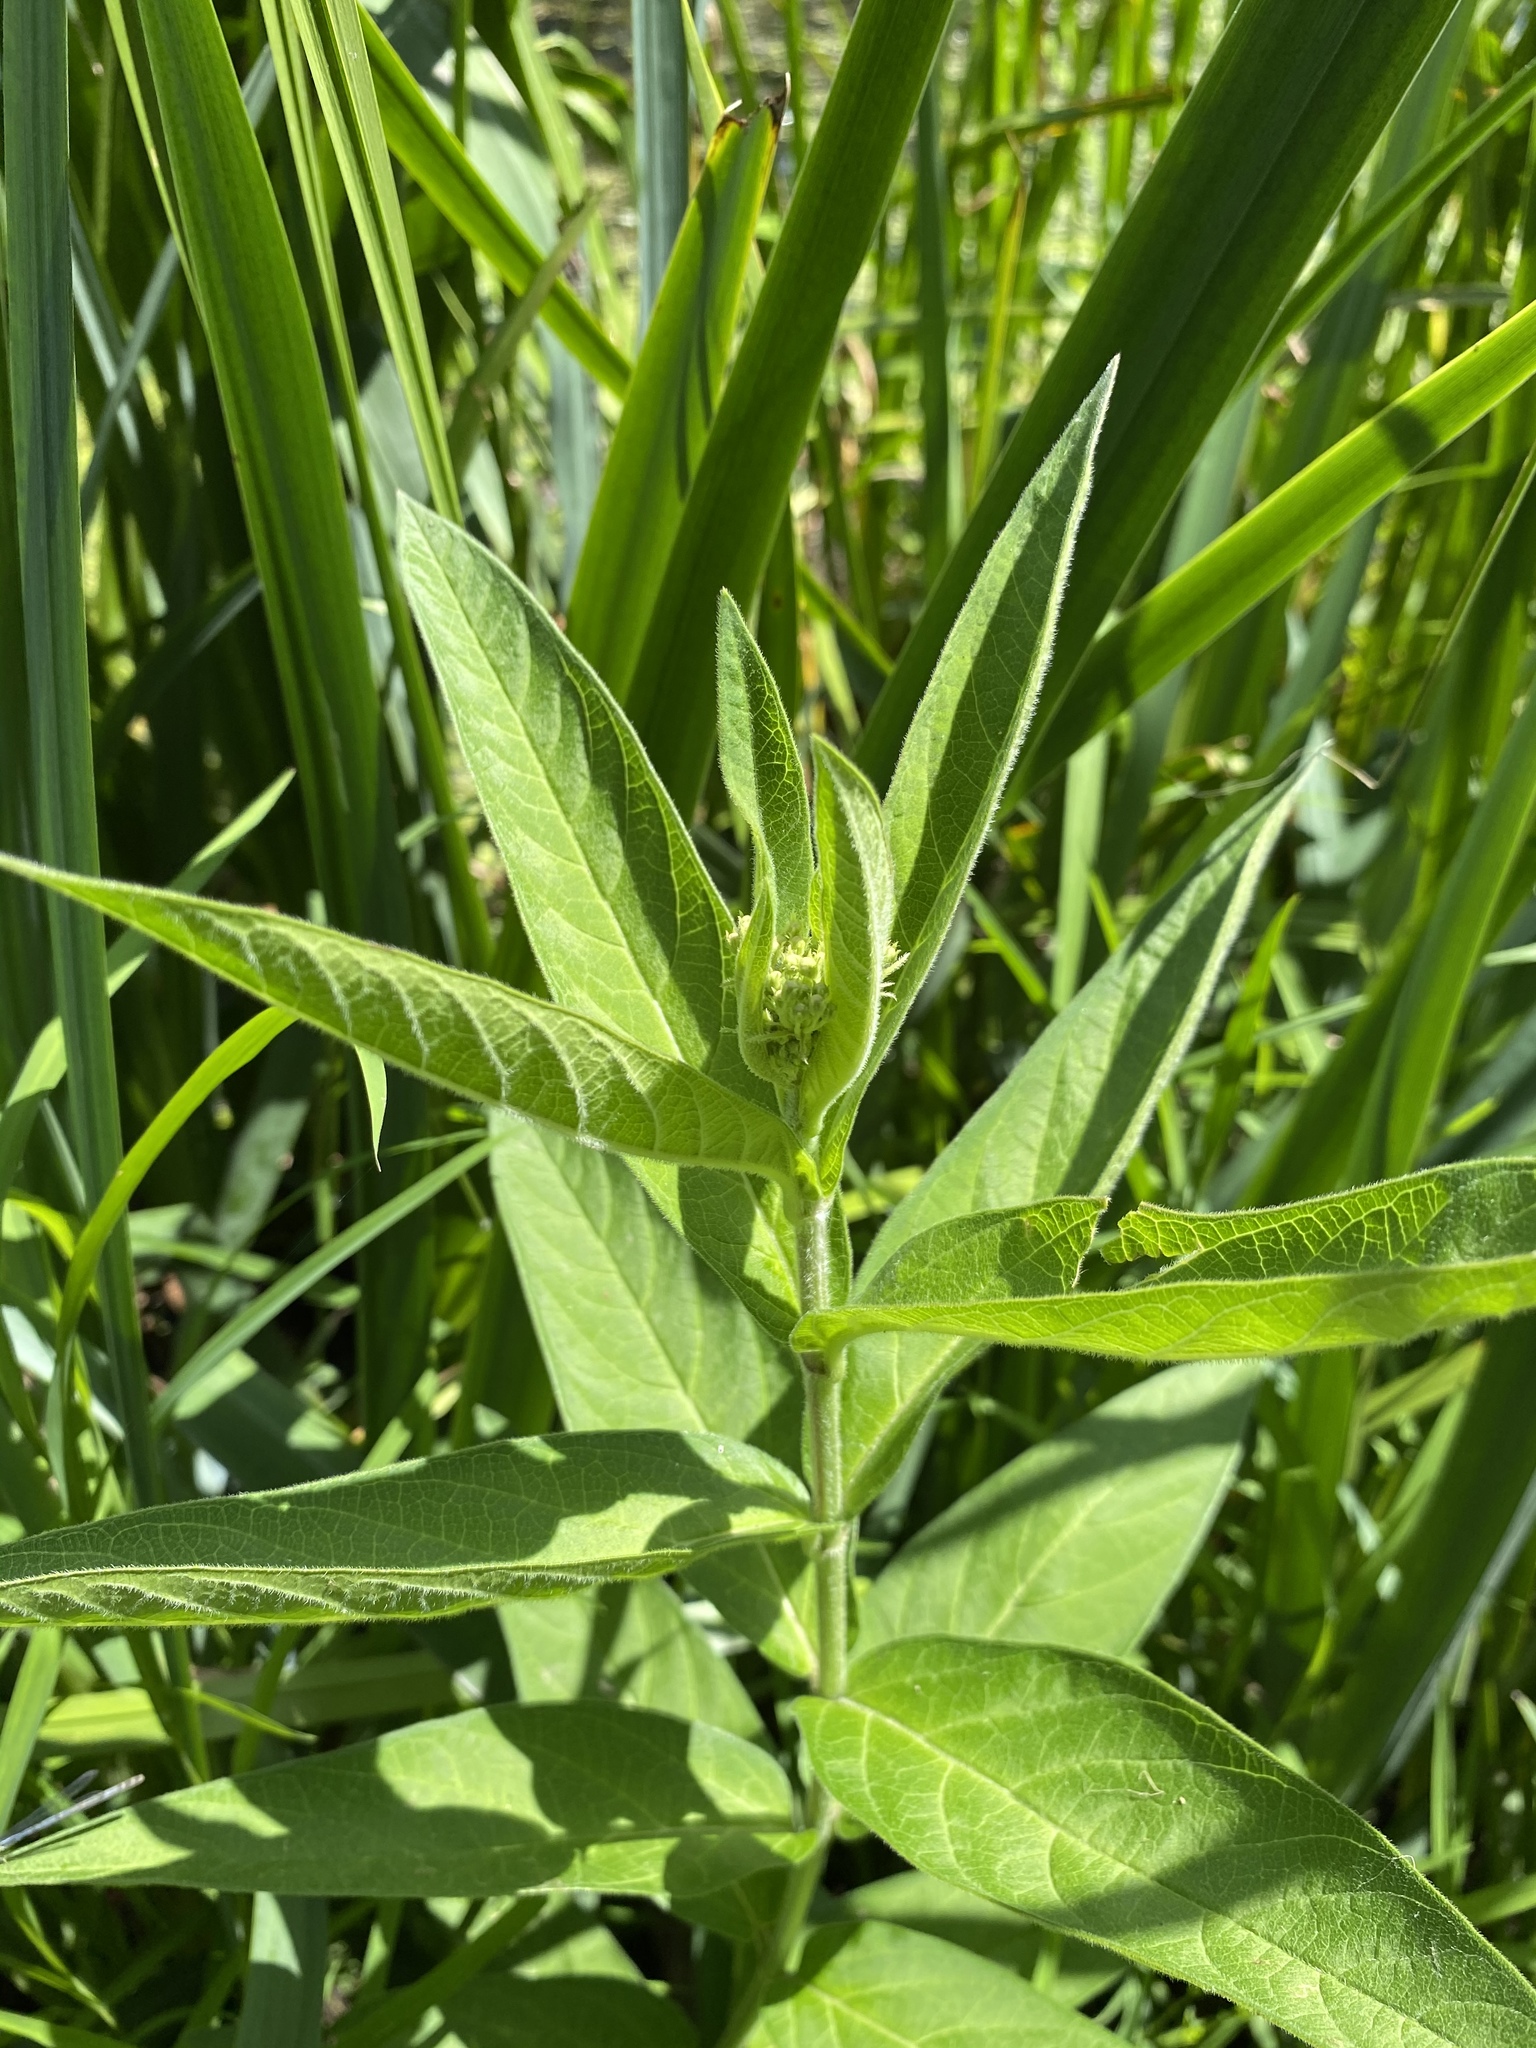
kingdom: Plantae
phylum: Tracheophyta
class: Magnoliopsida
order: Gentianales
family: Apocynaceae
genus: Asclepias
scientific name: Asclepias incarnata
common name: Swamp milkweed
